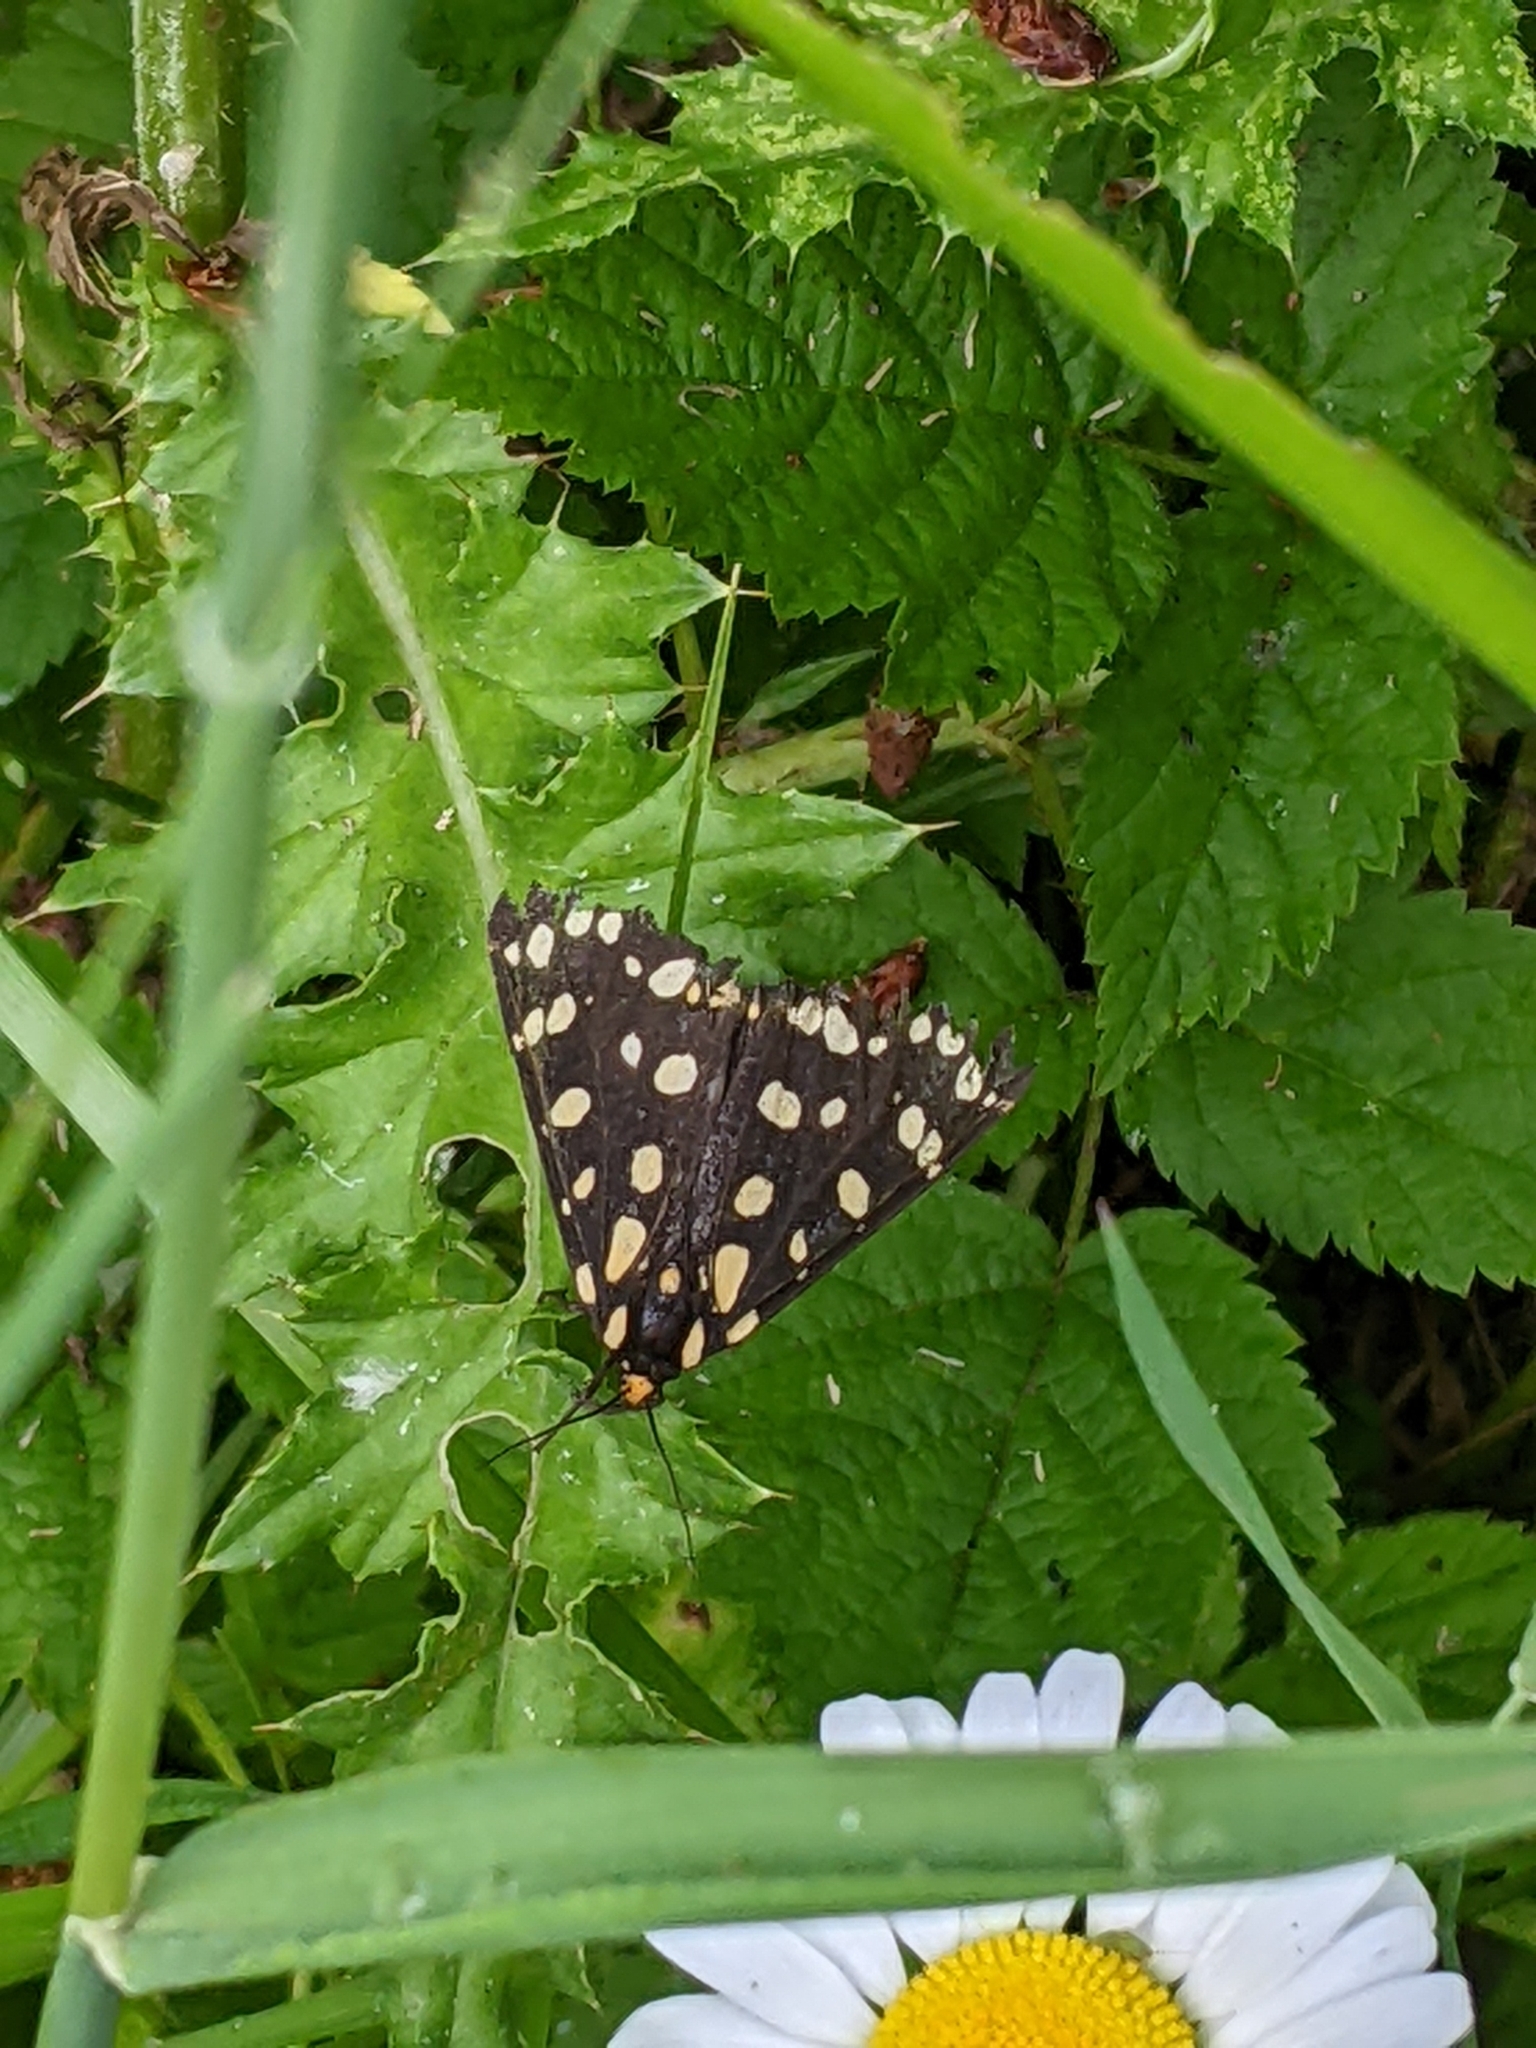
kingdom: Animalia
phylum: Arthropoda
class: Insecta
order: Lepidoptera
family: Erebidae
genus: Arctia
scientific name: Arctia tigrina
